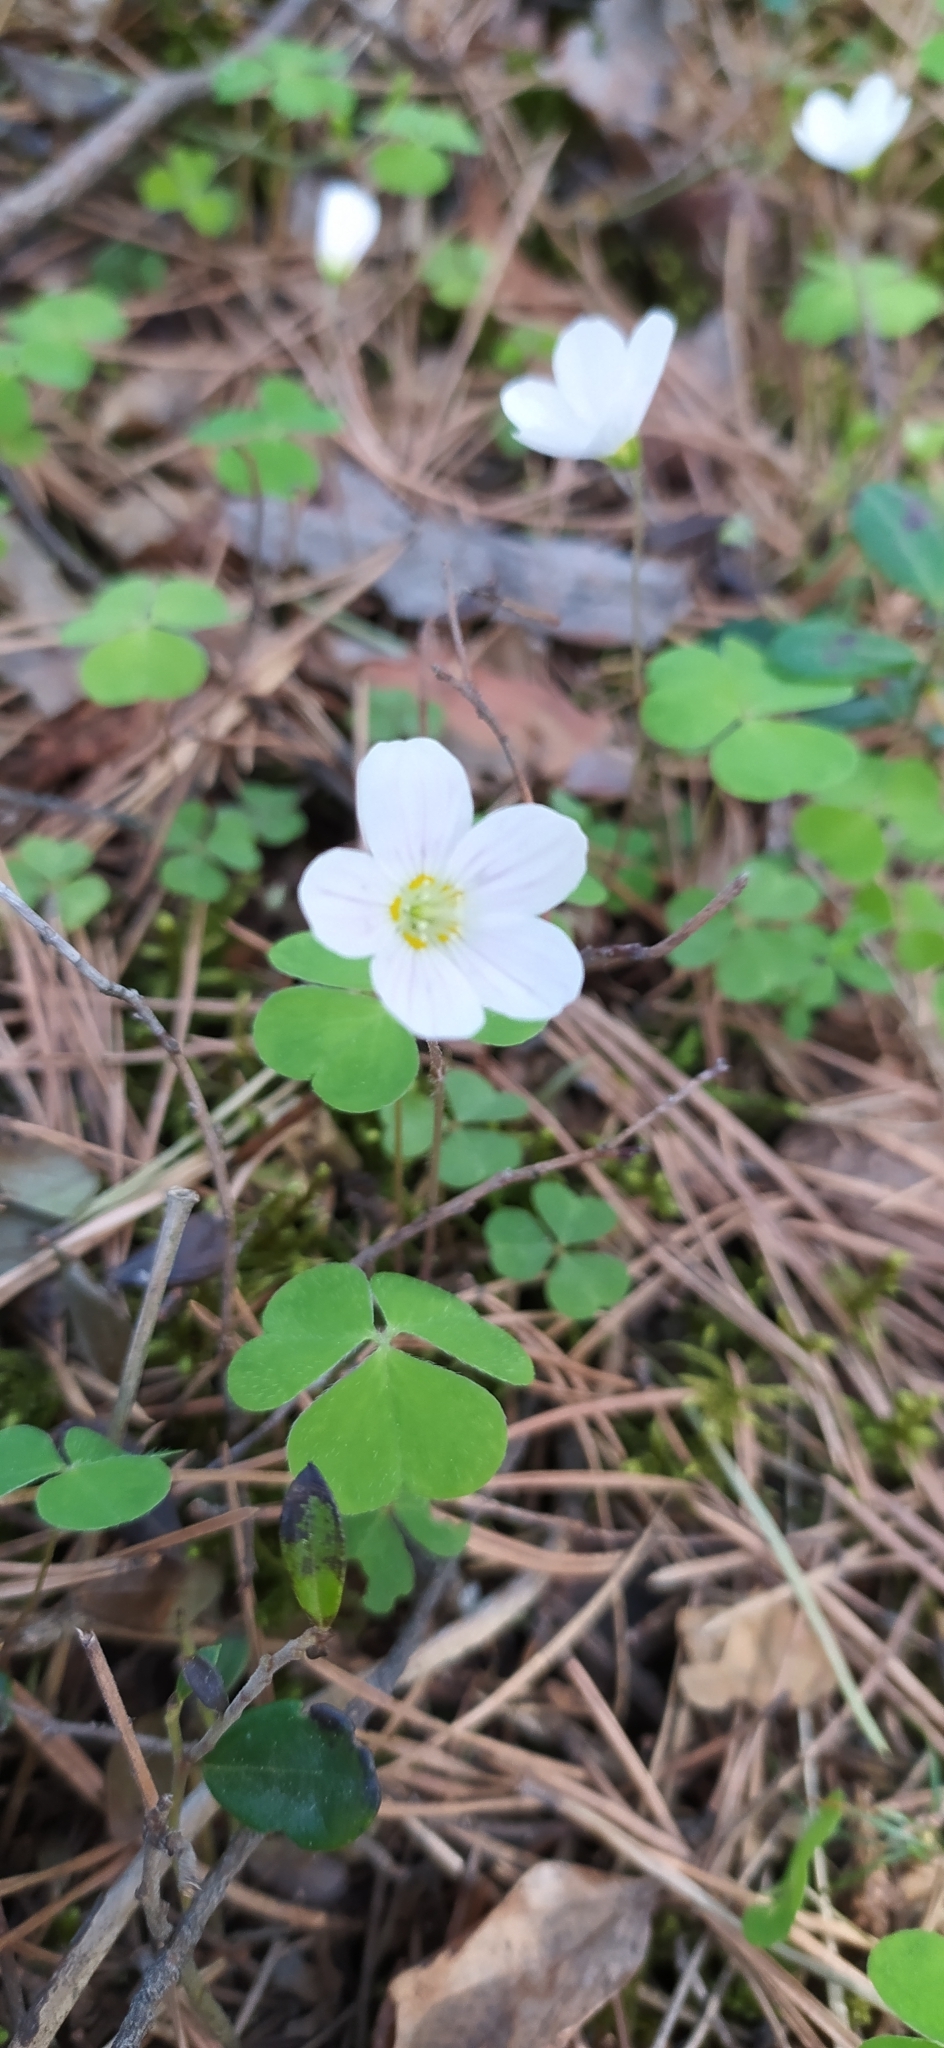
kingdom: Plantae
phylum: Tracheophyta
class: Magnoliopsida
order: Oxalidales
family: Oxalidaceae
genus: Oxalis
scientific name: Oxalis acetosella
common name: Wood-sorrel
